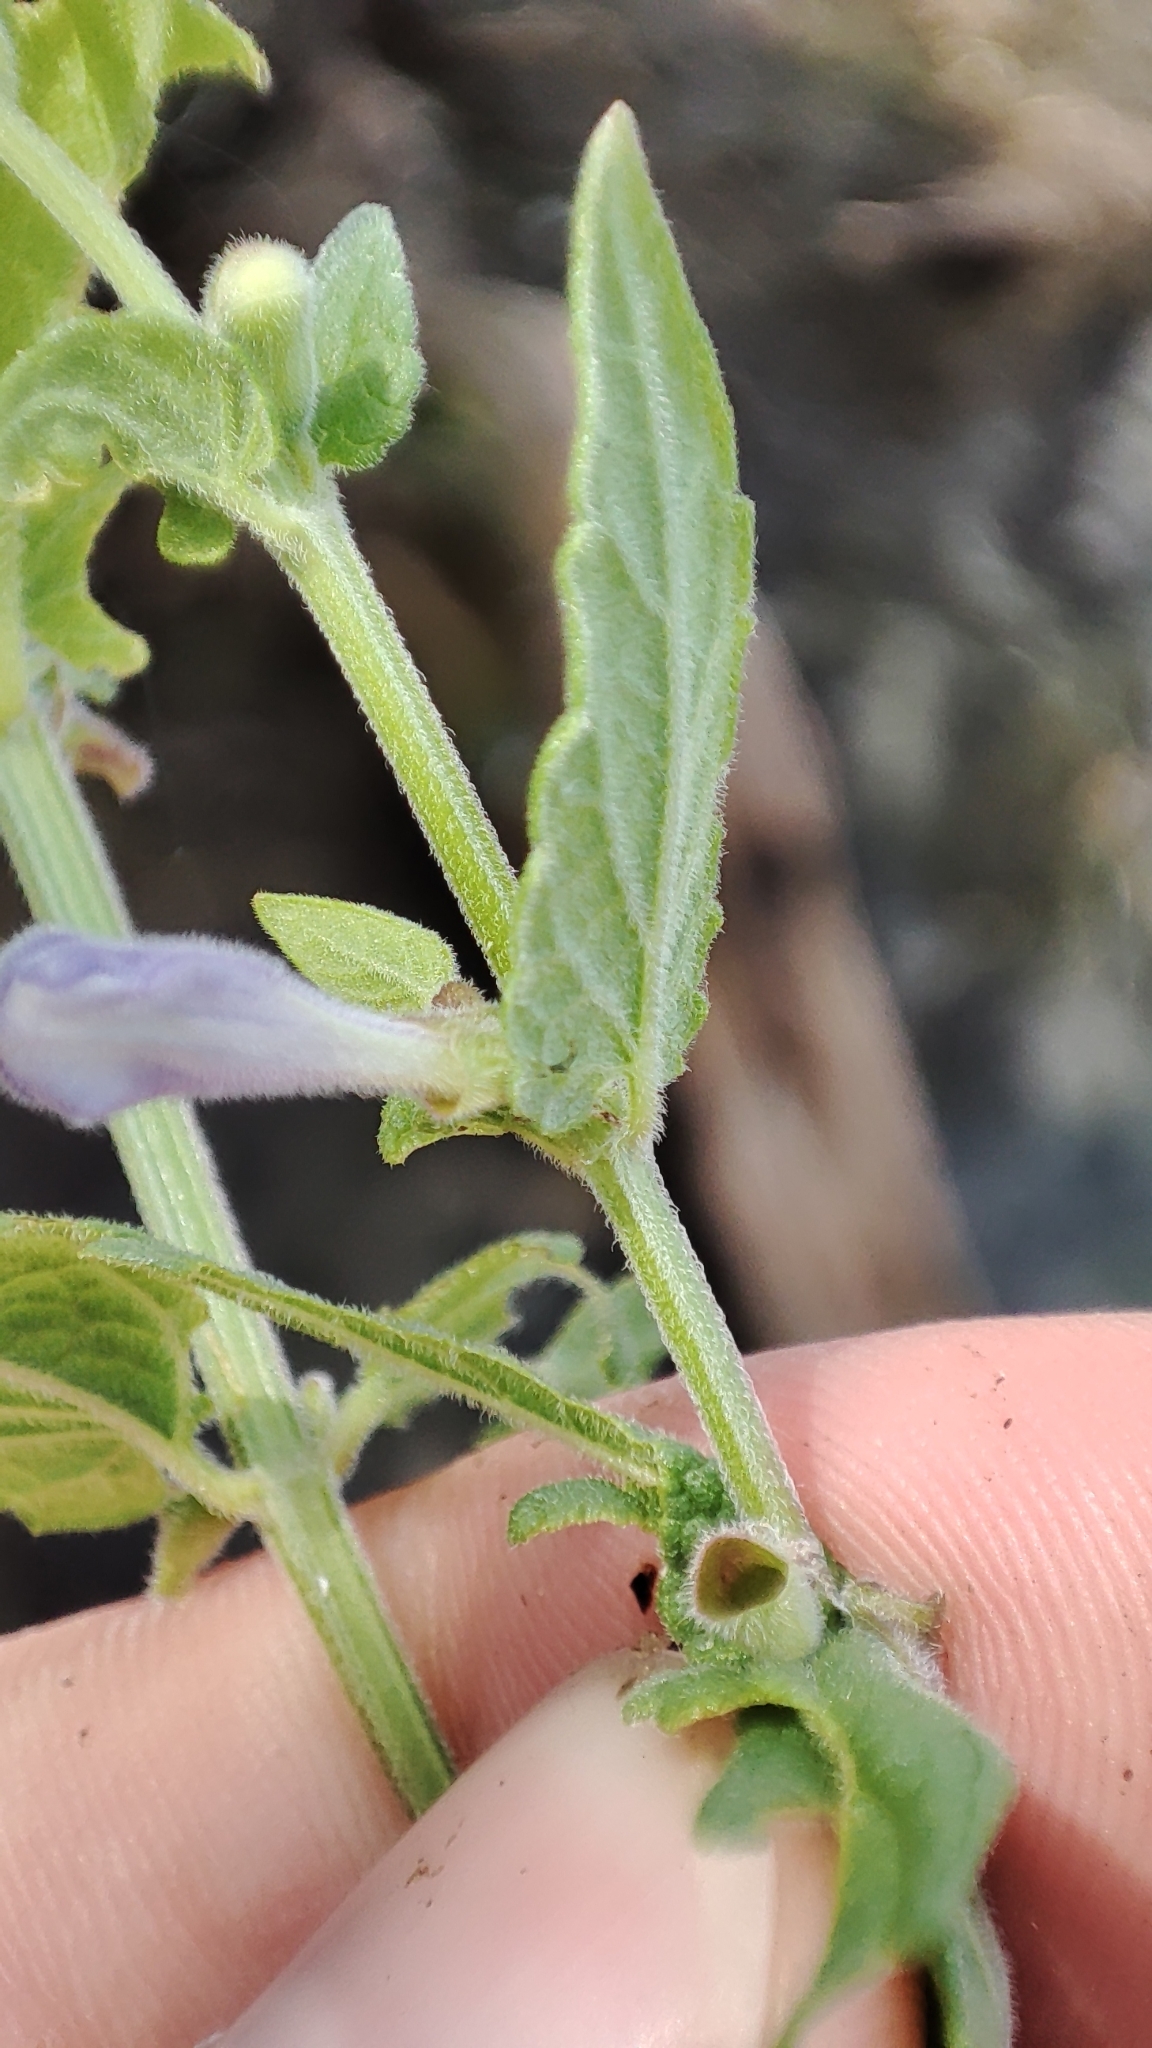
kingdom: Plantae
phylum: Tracheophyta
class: Magnoliopsida
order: Lamiales
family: Lamiaceae
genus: Scutellaria
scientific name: Scutellaria galericulata
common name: Skullcap
